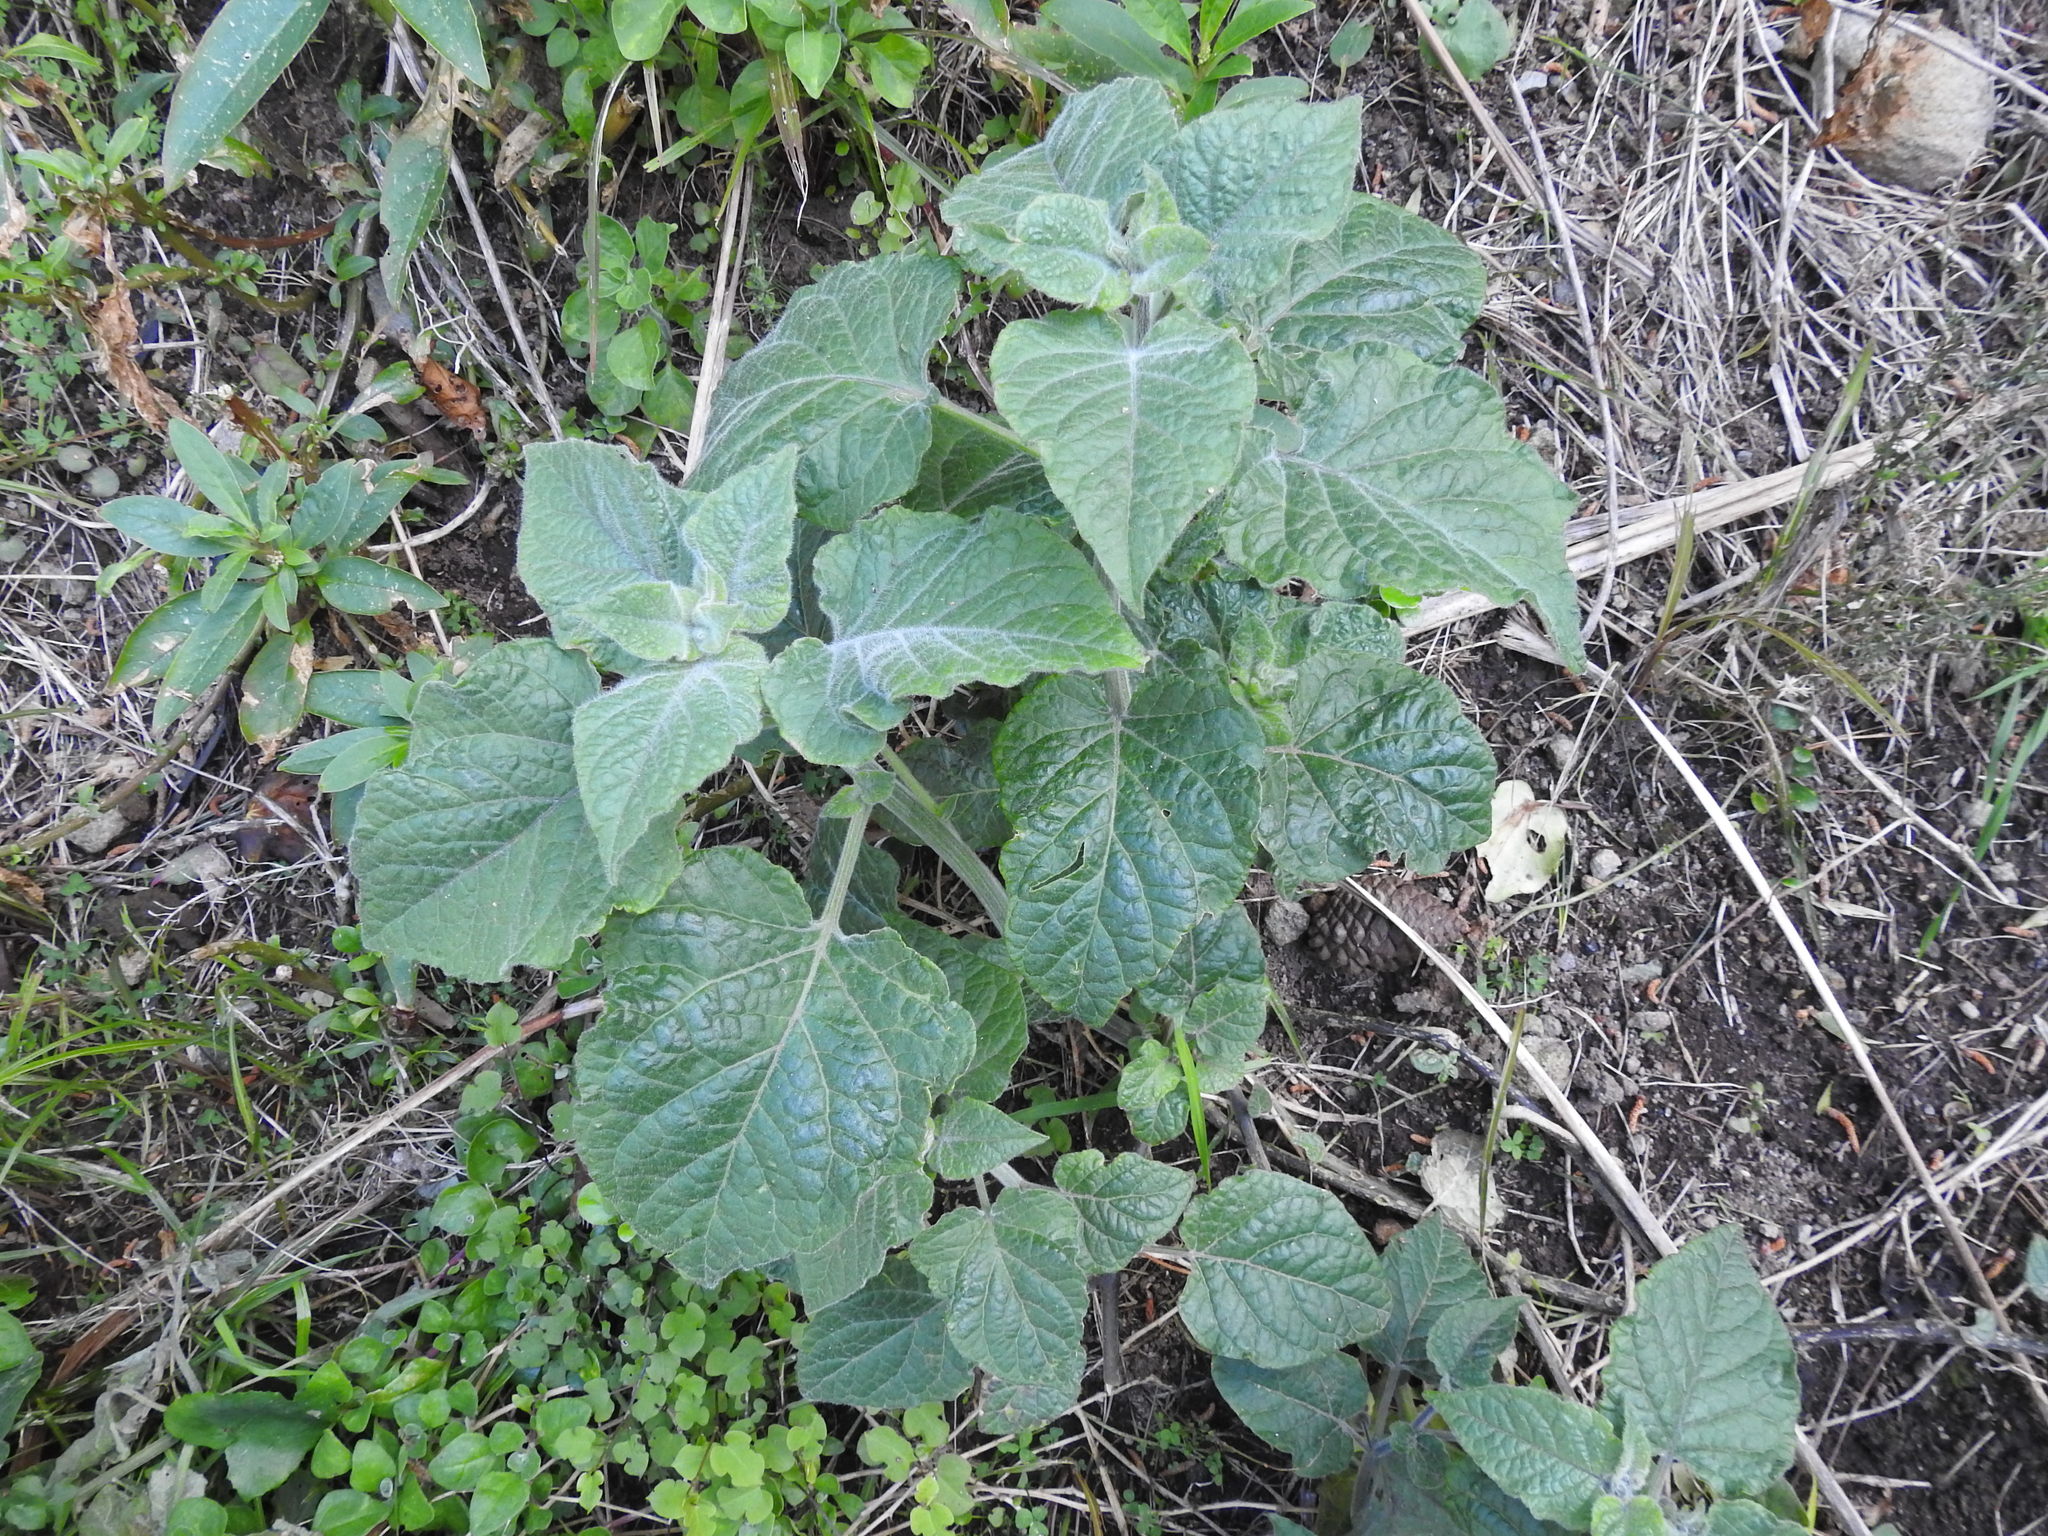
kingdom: Plantae
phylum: Tracheophyta
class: Magnoliopsida
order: Solanales
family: Solanaceae
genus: Physalis
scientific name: Physalis peruviana
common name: Cape-gooseberry
